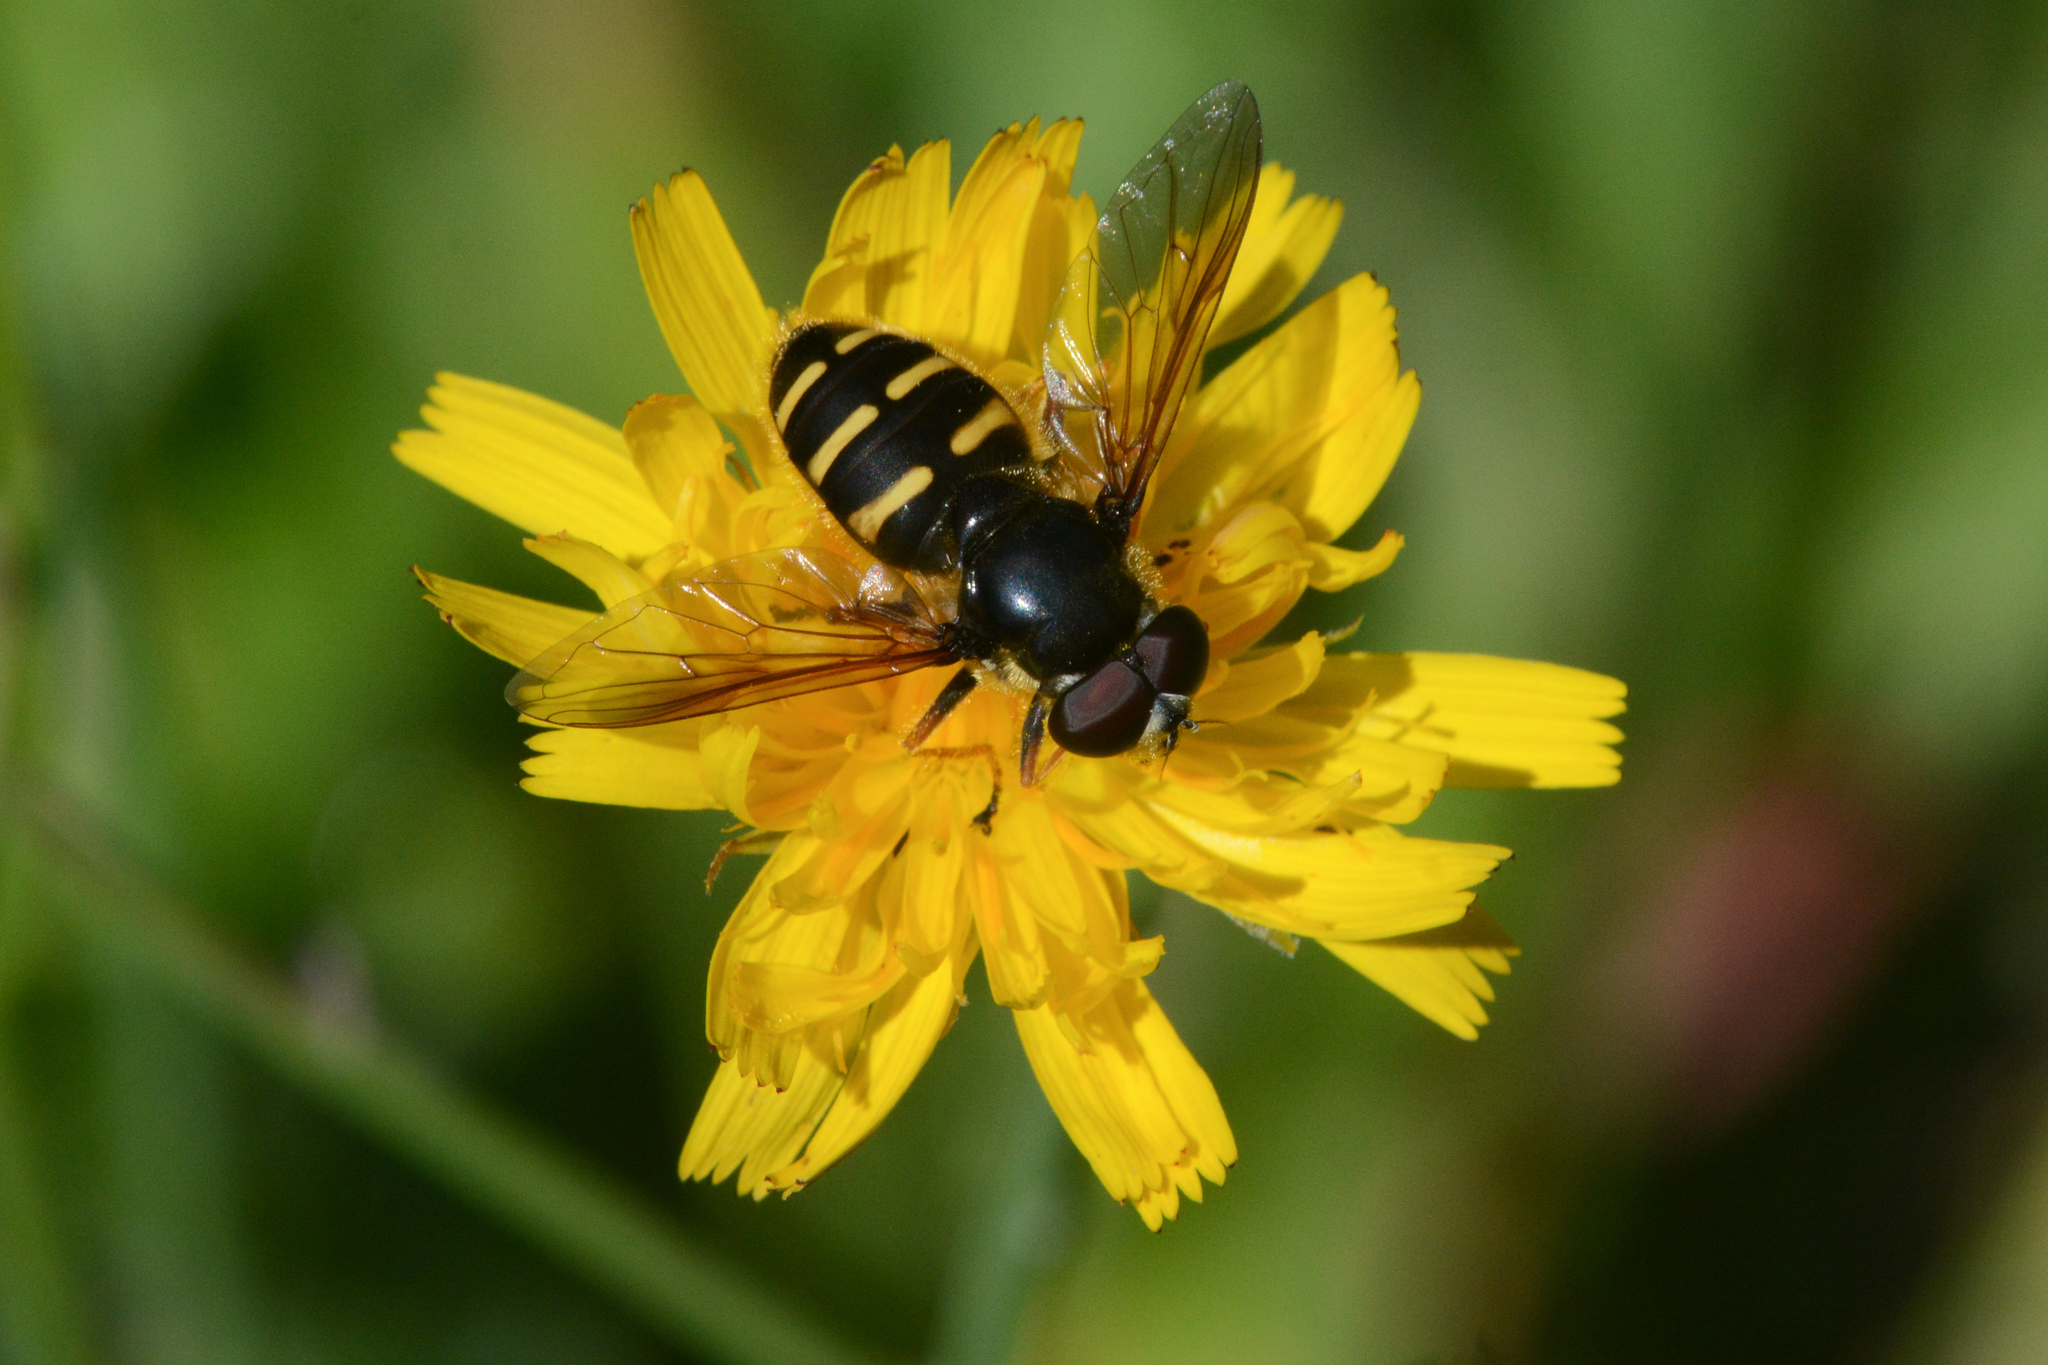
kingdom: Animalia
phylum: Arthropoda
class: Insecta
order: Diptera
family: Syrphidae
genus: Sericomyia
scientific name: Sericomyia chalcopyga
